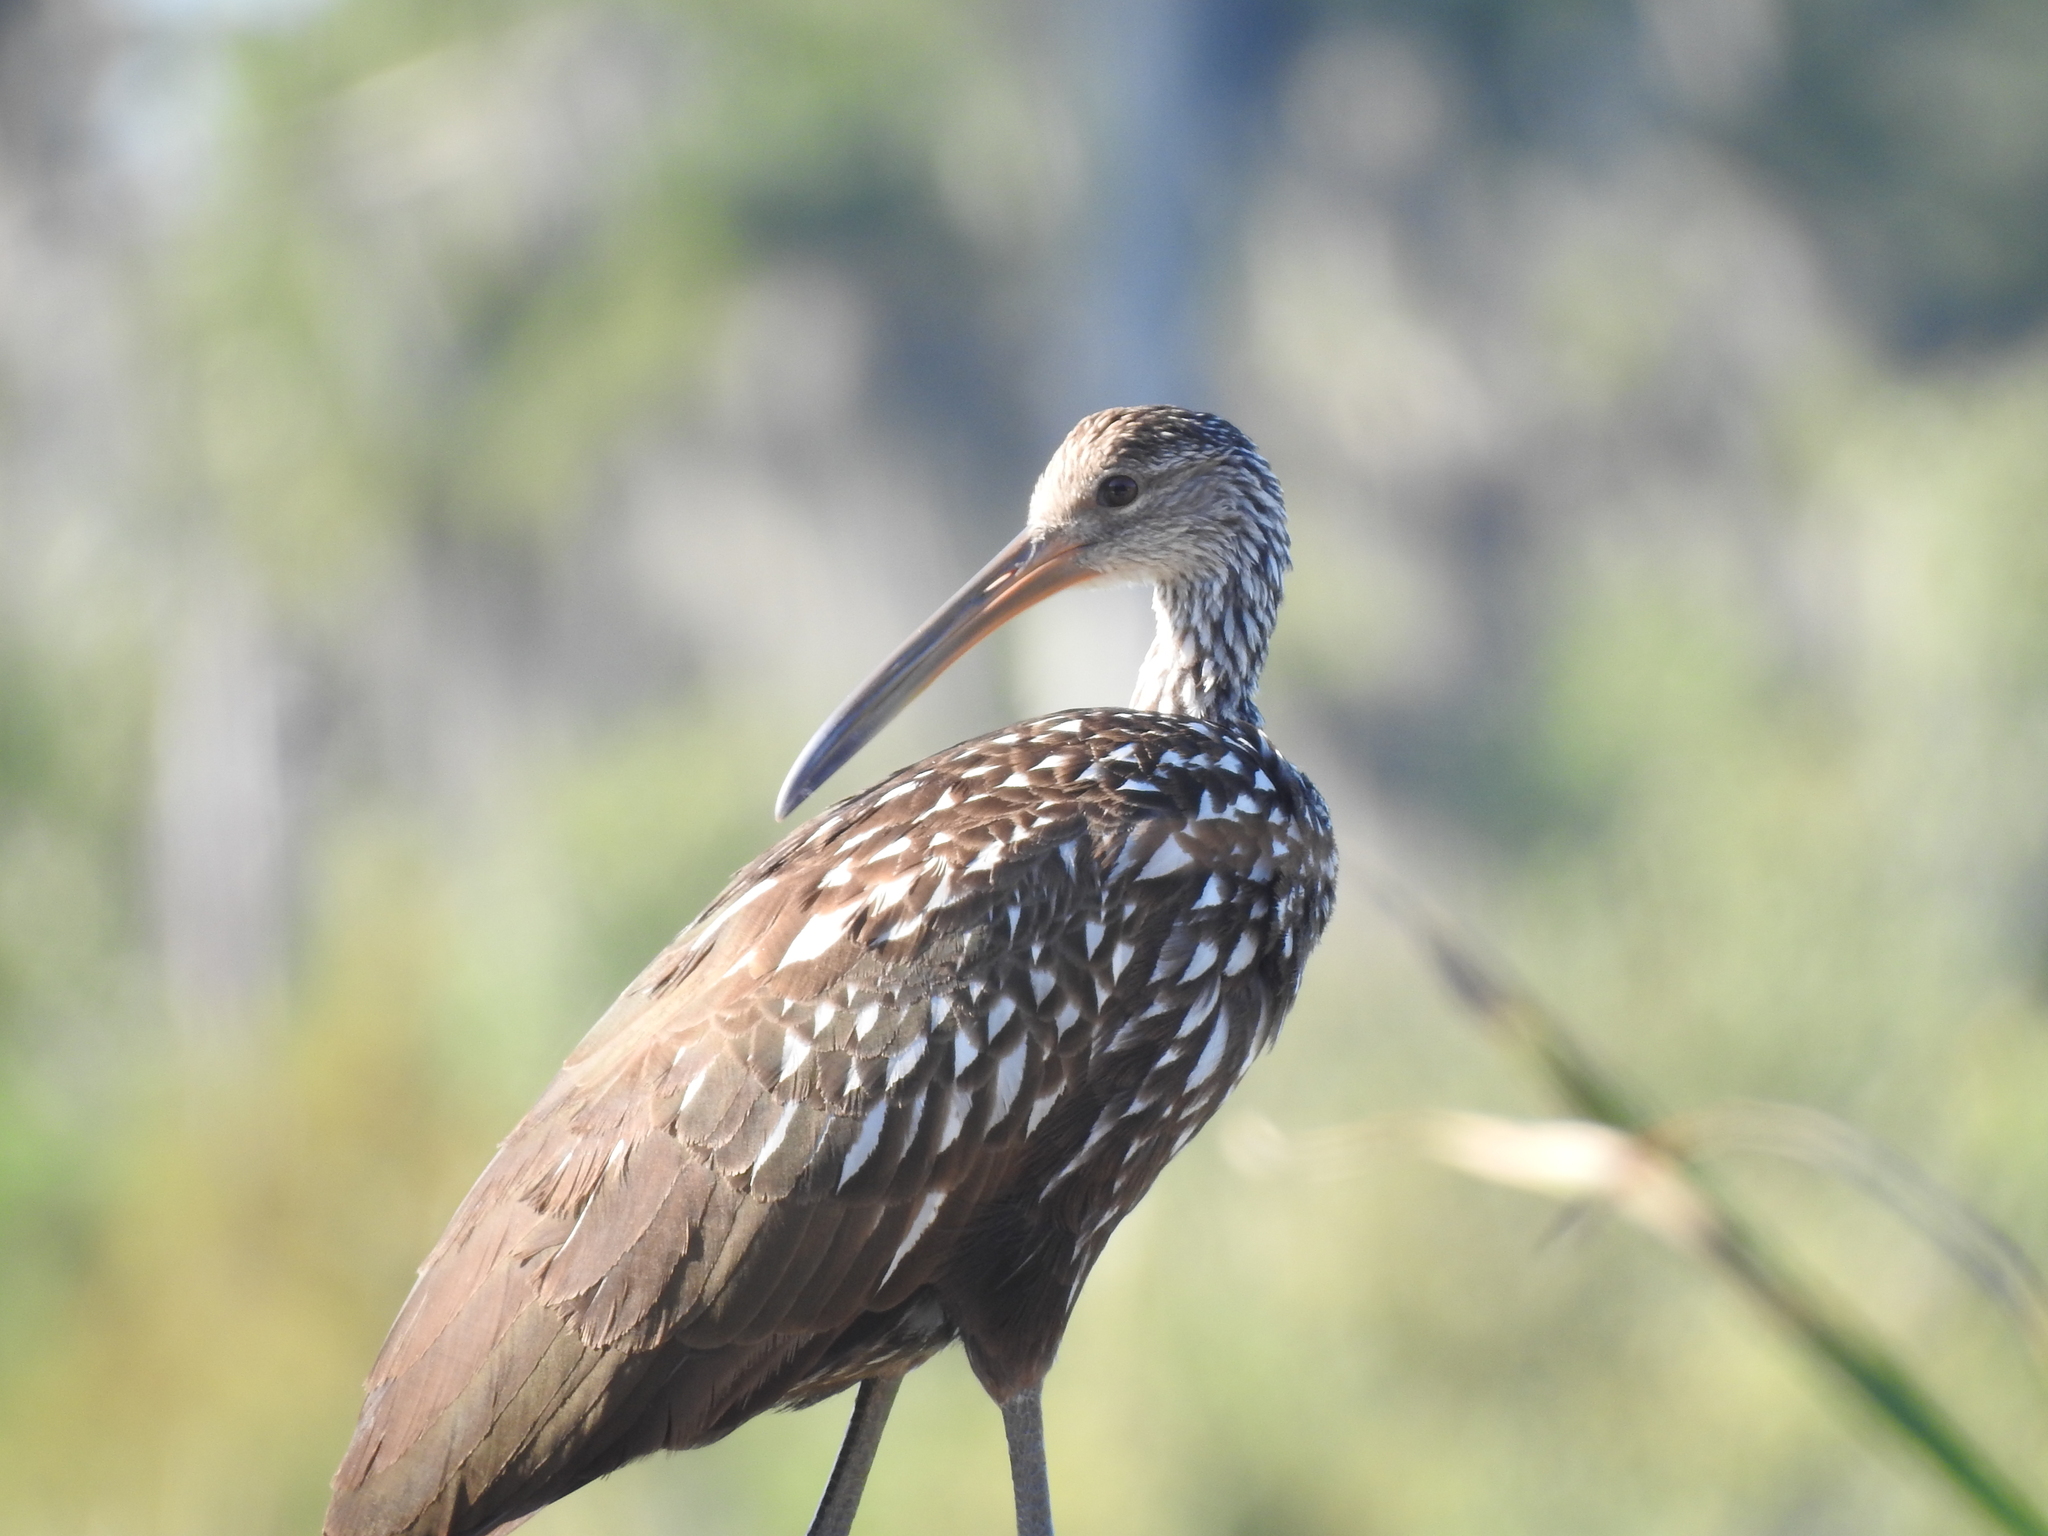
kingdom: Animalia
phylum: Chordata
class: Aves
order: Gruiformes
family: Aramidae
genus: Aramus
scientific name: Aramus guarauna
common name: Limpkin
